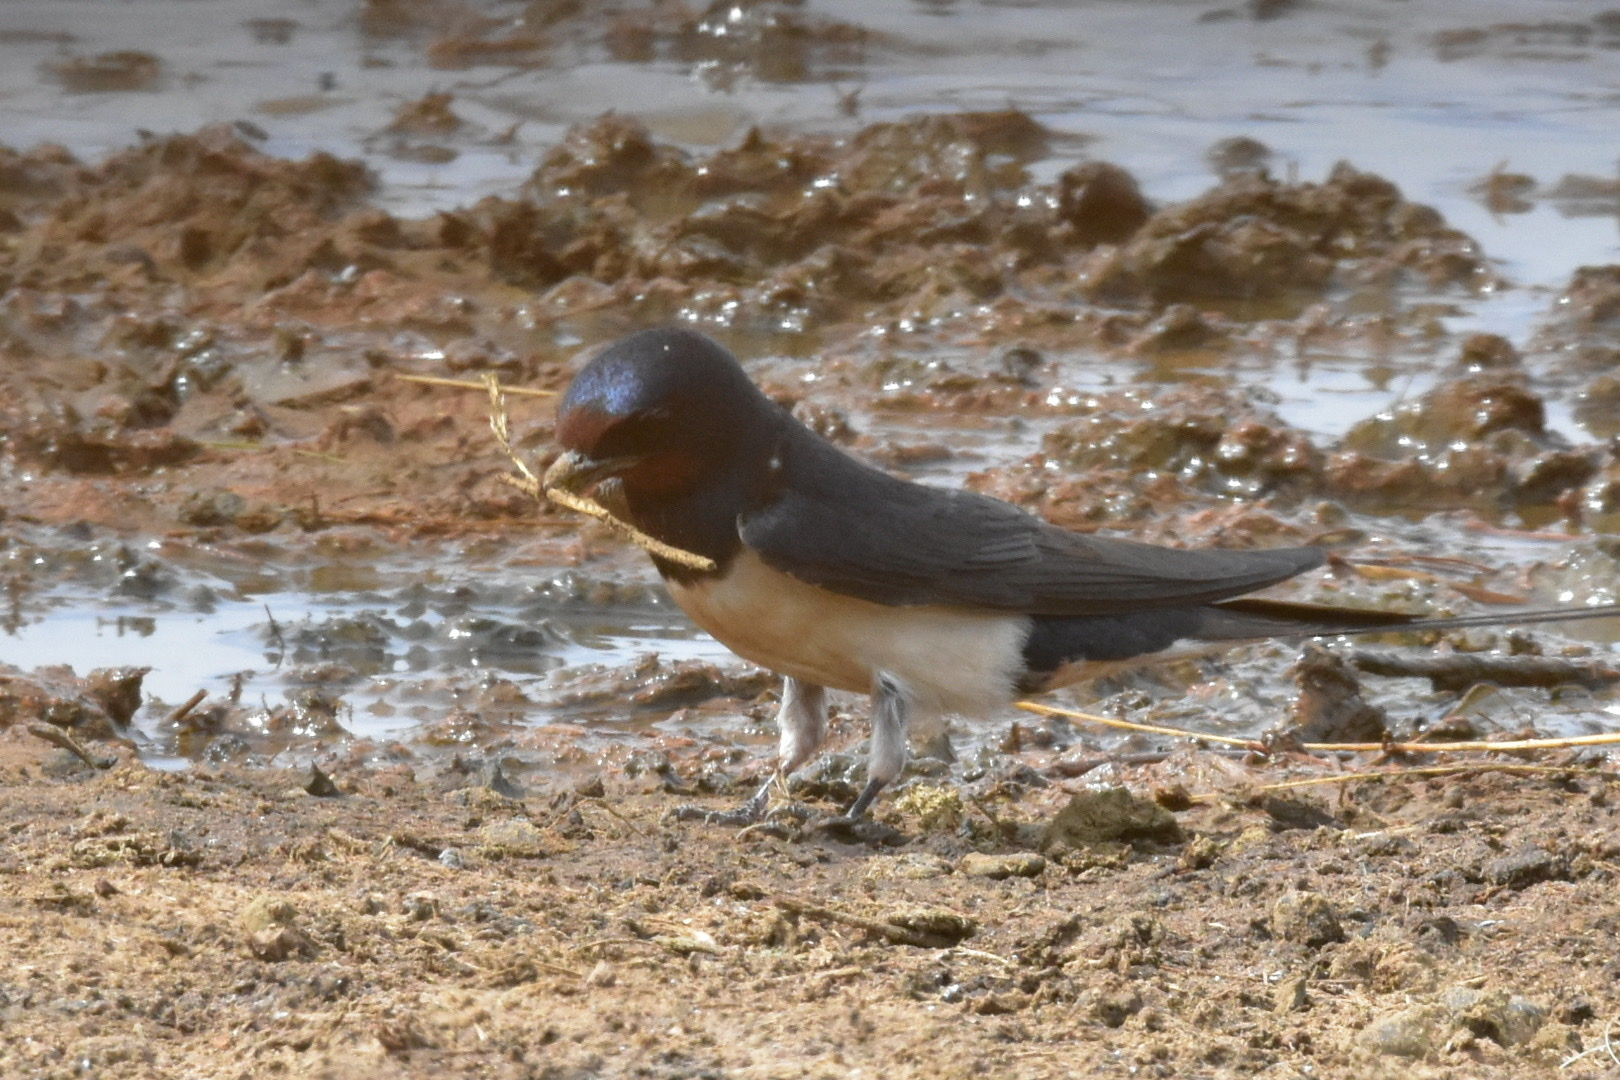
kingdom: Animalia
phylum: Chordata
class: Aves
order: Passeriformes
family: Hirundinidae
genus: Hirundo
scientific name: Hirundo rustica
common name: Barn swallow
